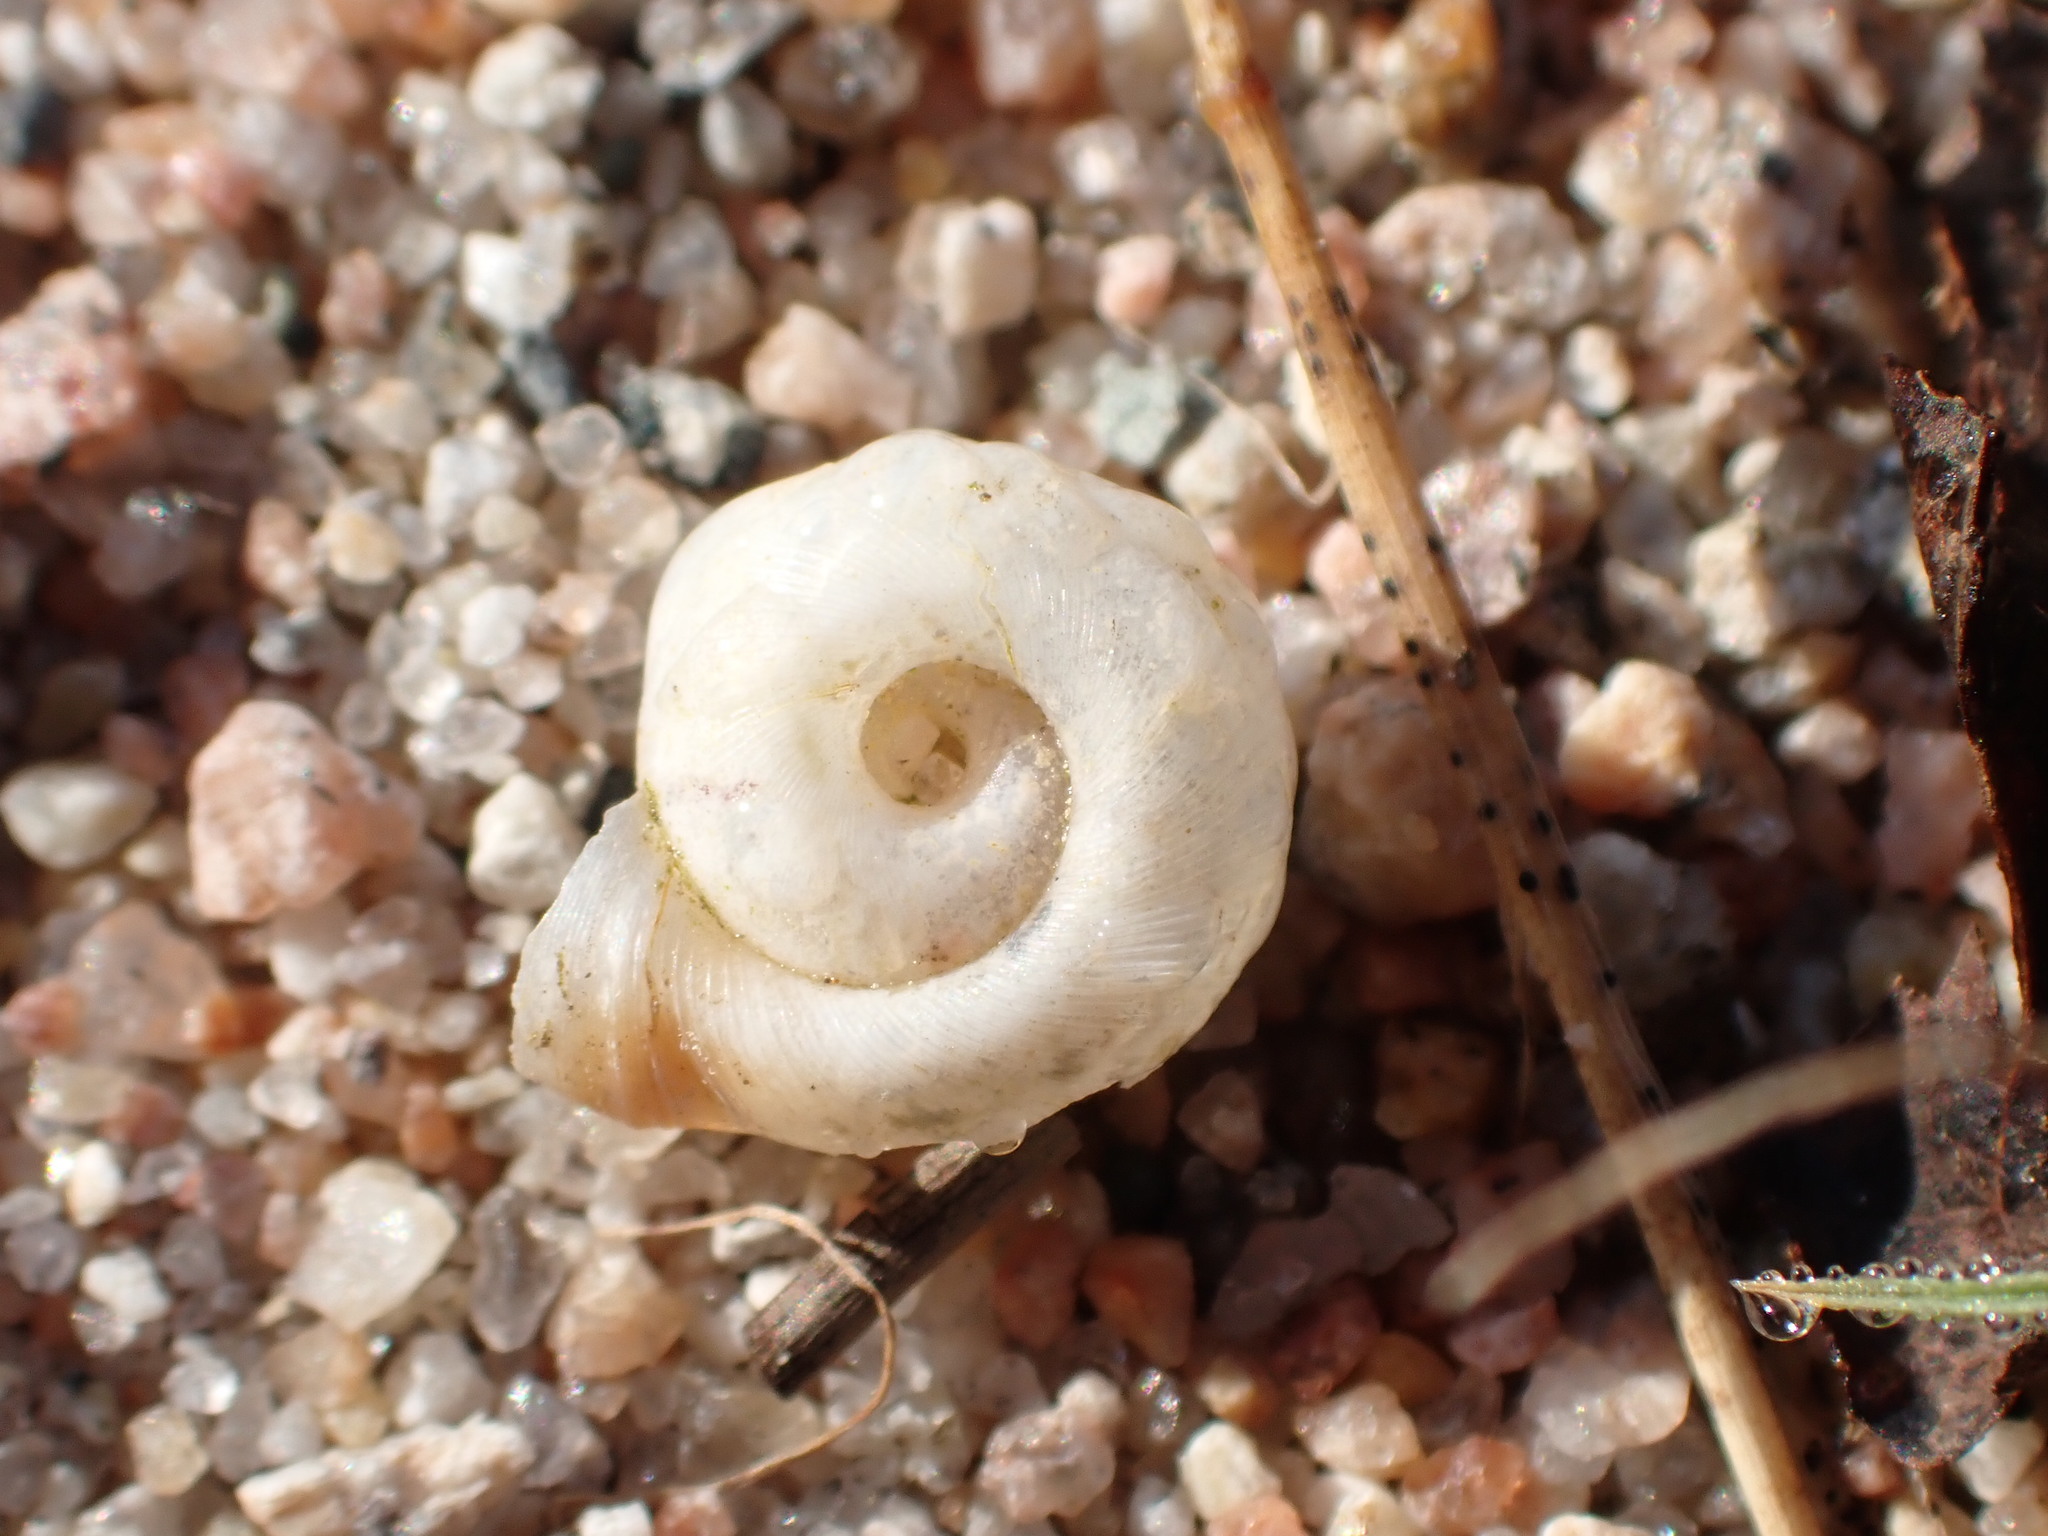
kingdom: Animalia
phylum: Mollusca
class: Gastropoda
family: Planorbidae
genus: Planorbella
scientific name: Planorbella campanulata
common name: Bellmouth ramshorn
